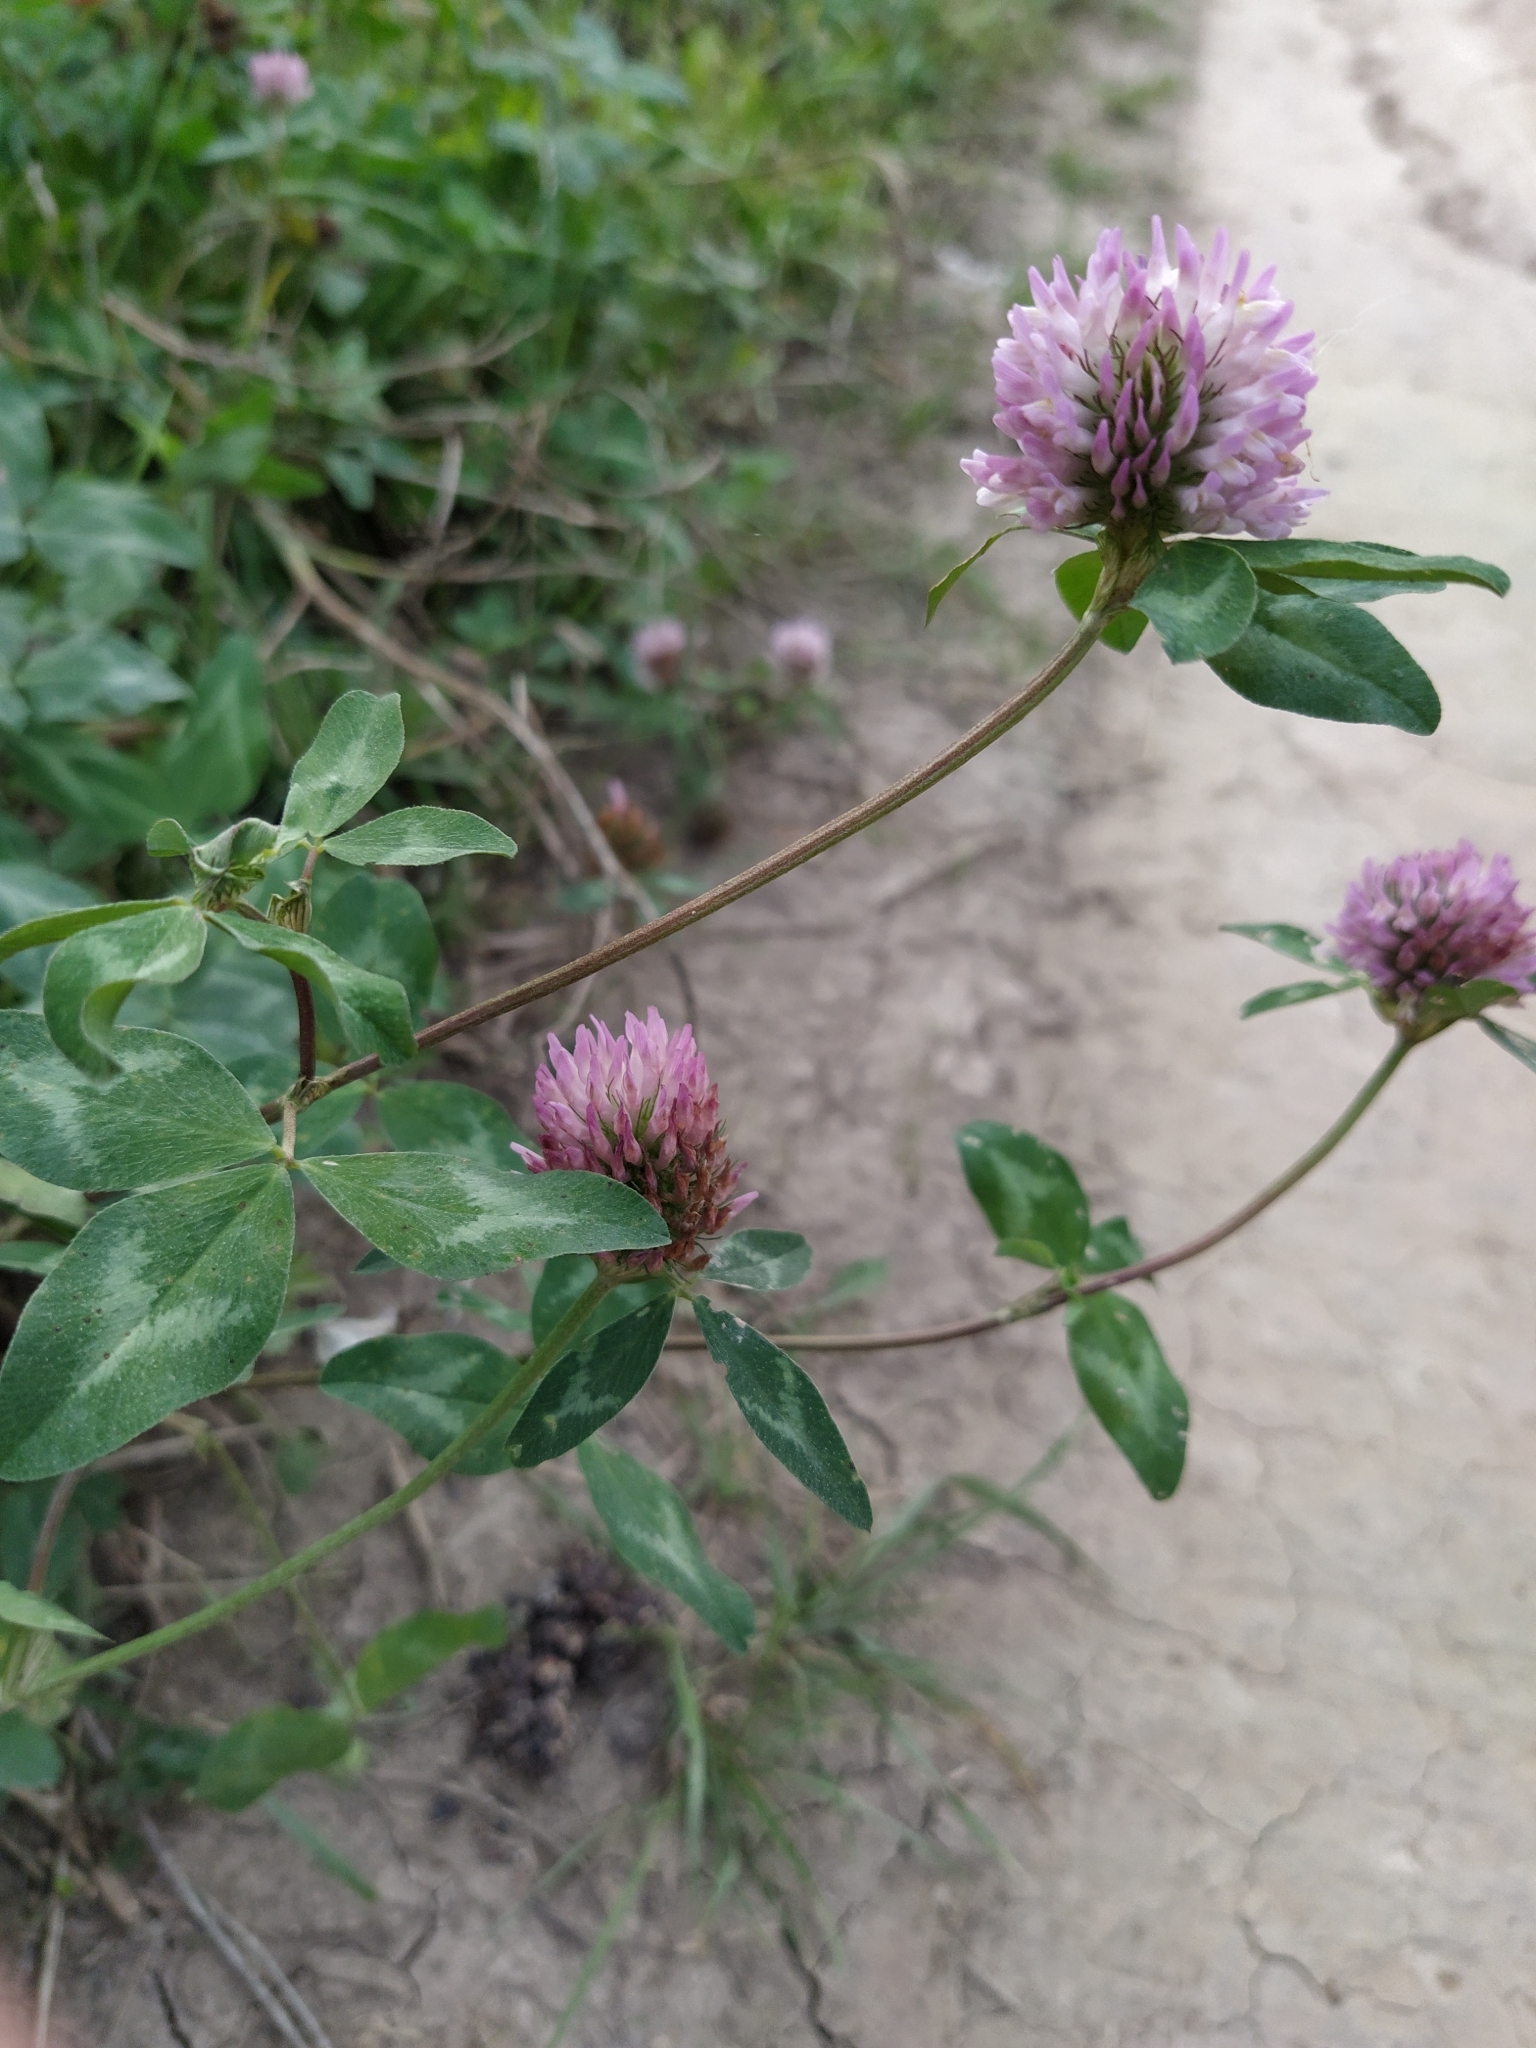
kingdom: Plantae
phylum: Tracheophyta
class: Magnoliopsida
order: Fabales
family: Fabaceae
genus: Trifolium
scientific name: Trifolium pratense
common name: Red clover
